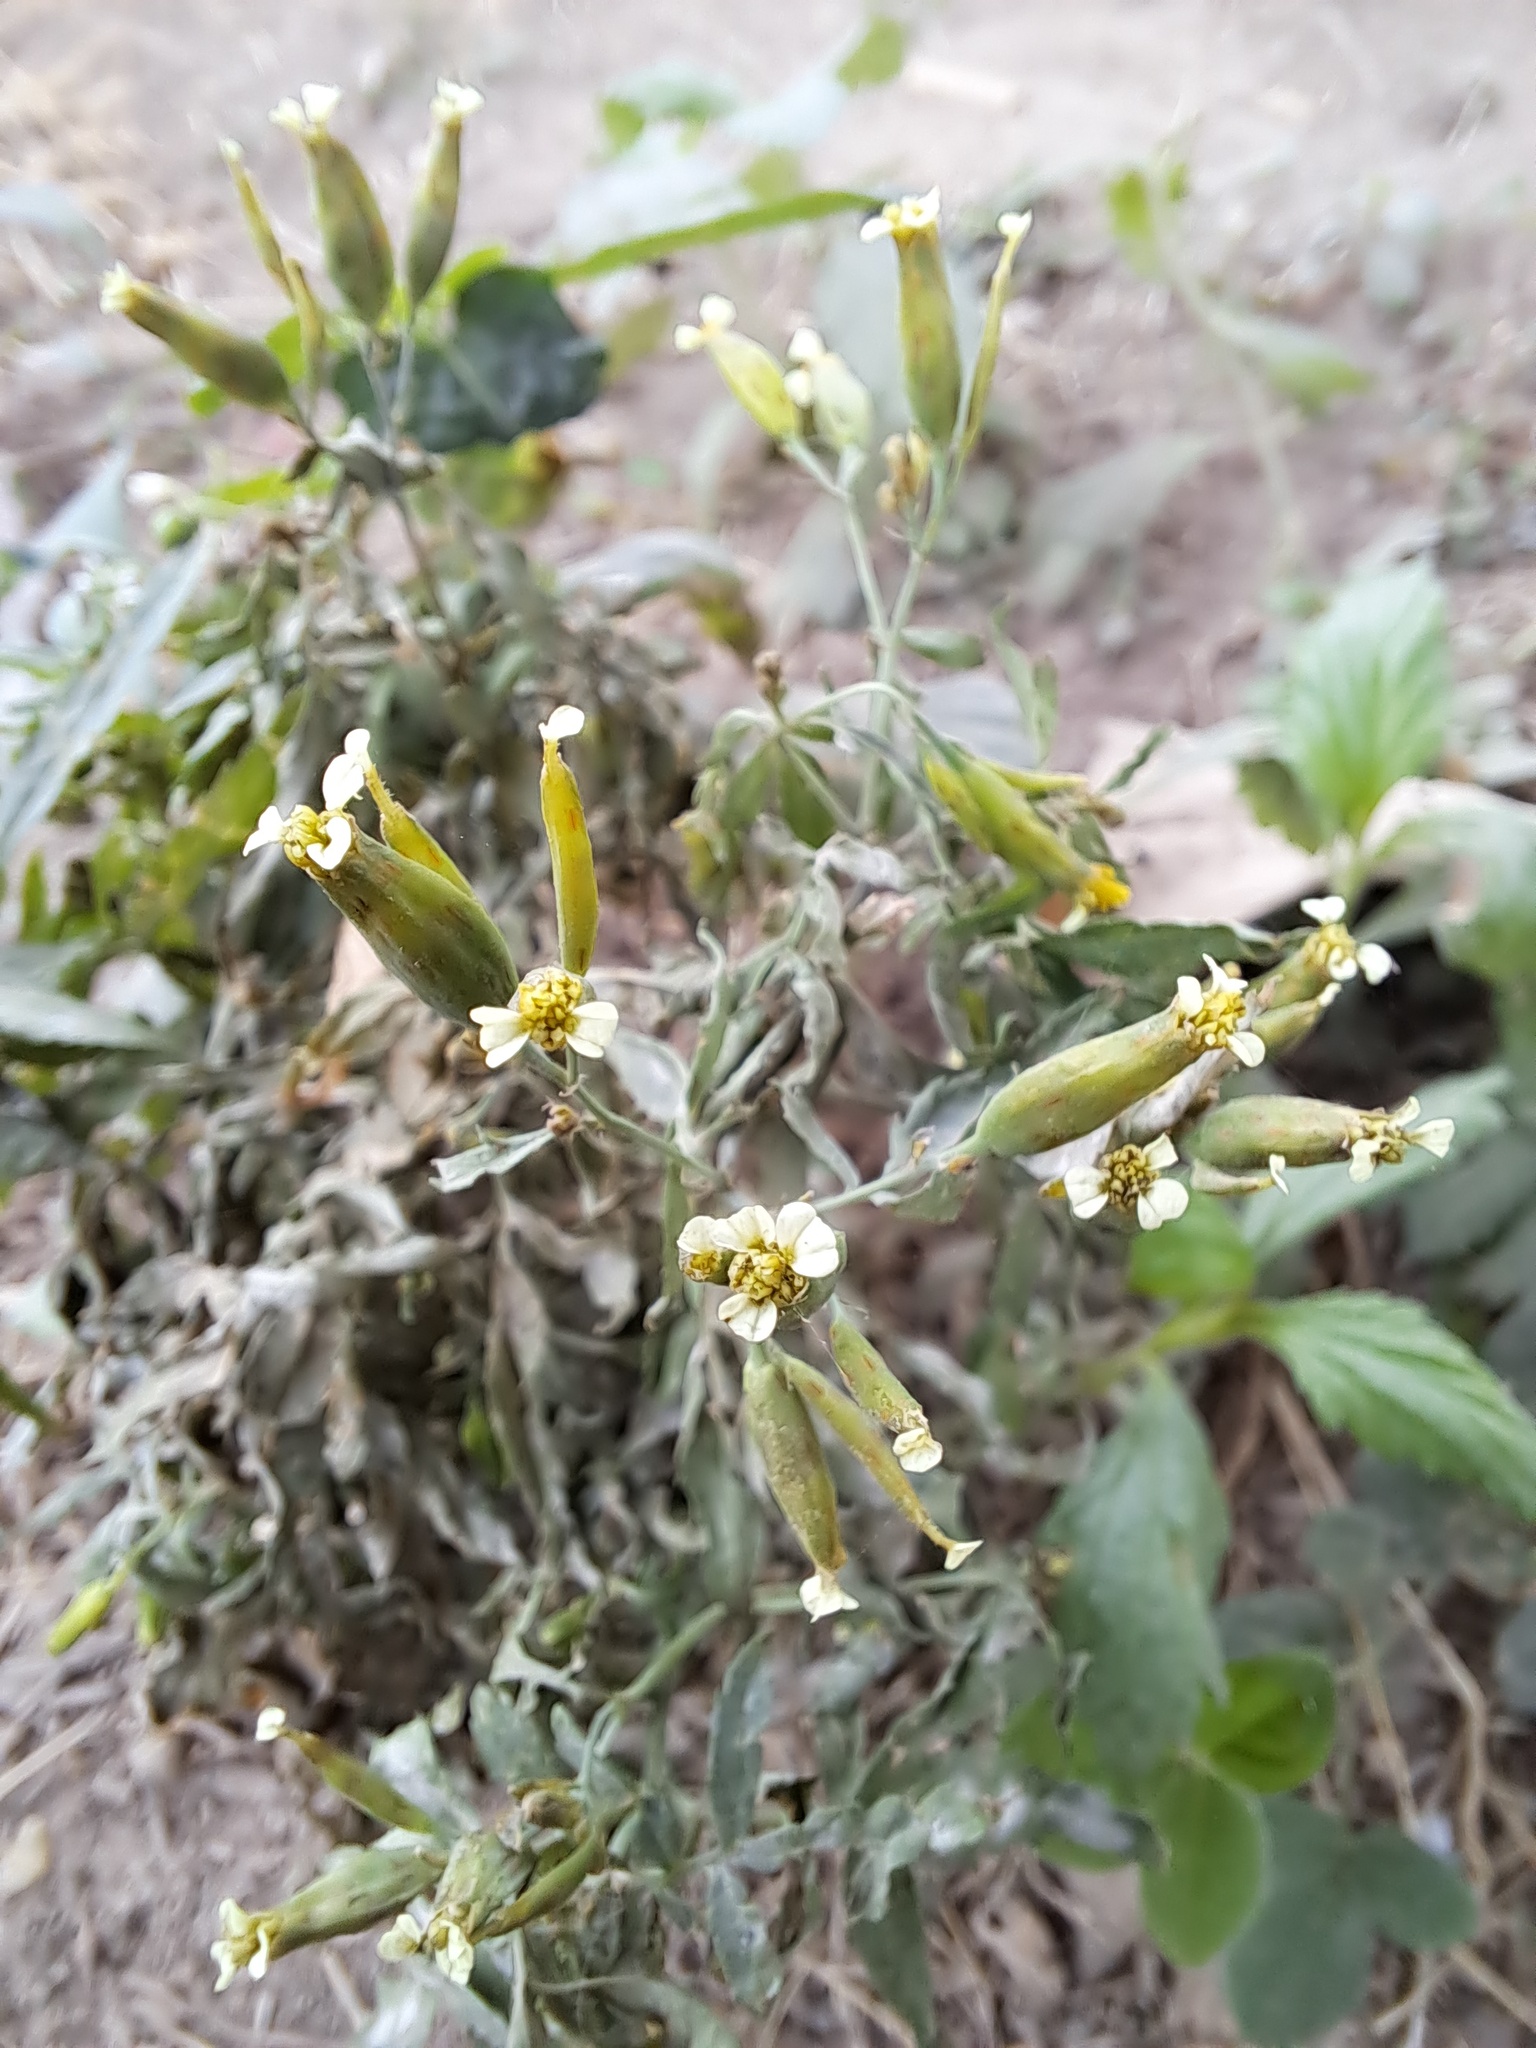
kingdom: Plantae
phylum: Tracheophyta
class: Magnoliopsida
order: Asterales
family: Asteraceae
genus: Tagetes
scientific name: Tagetes minuta
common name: Muster john henry
